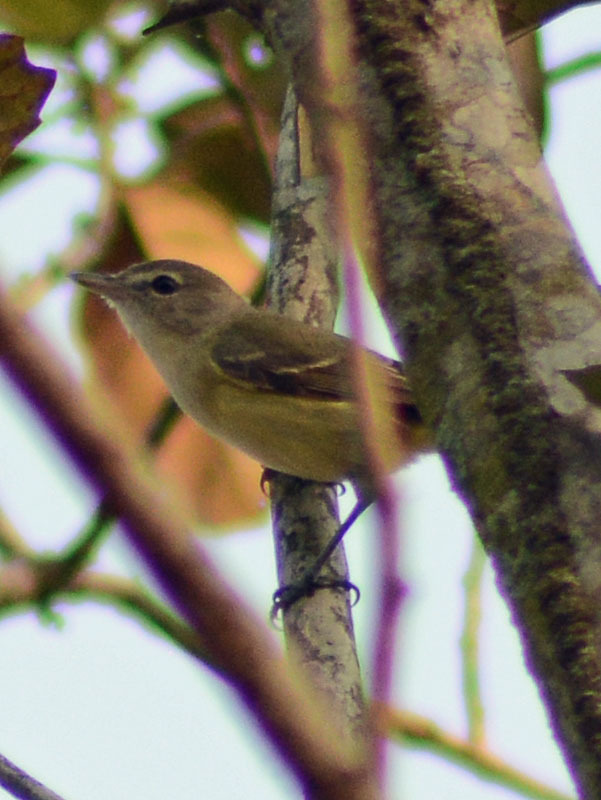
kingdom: Animalia
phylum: Chordata
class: Aves
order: Passeriformes
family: Vireonidae
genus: Vireo
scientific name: Vireo bellii
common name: Bell's vireo
